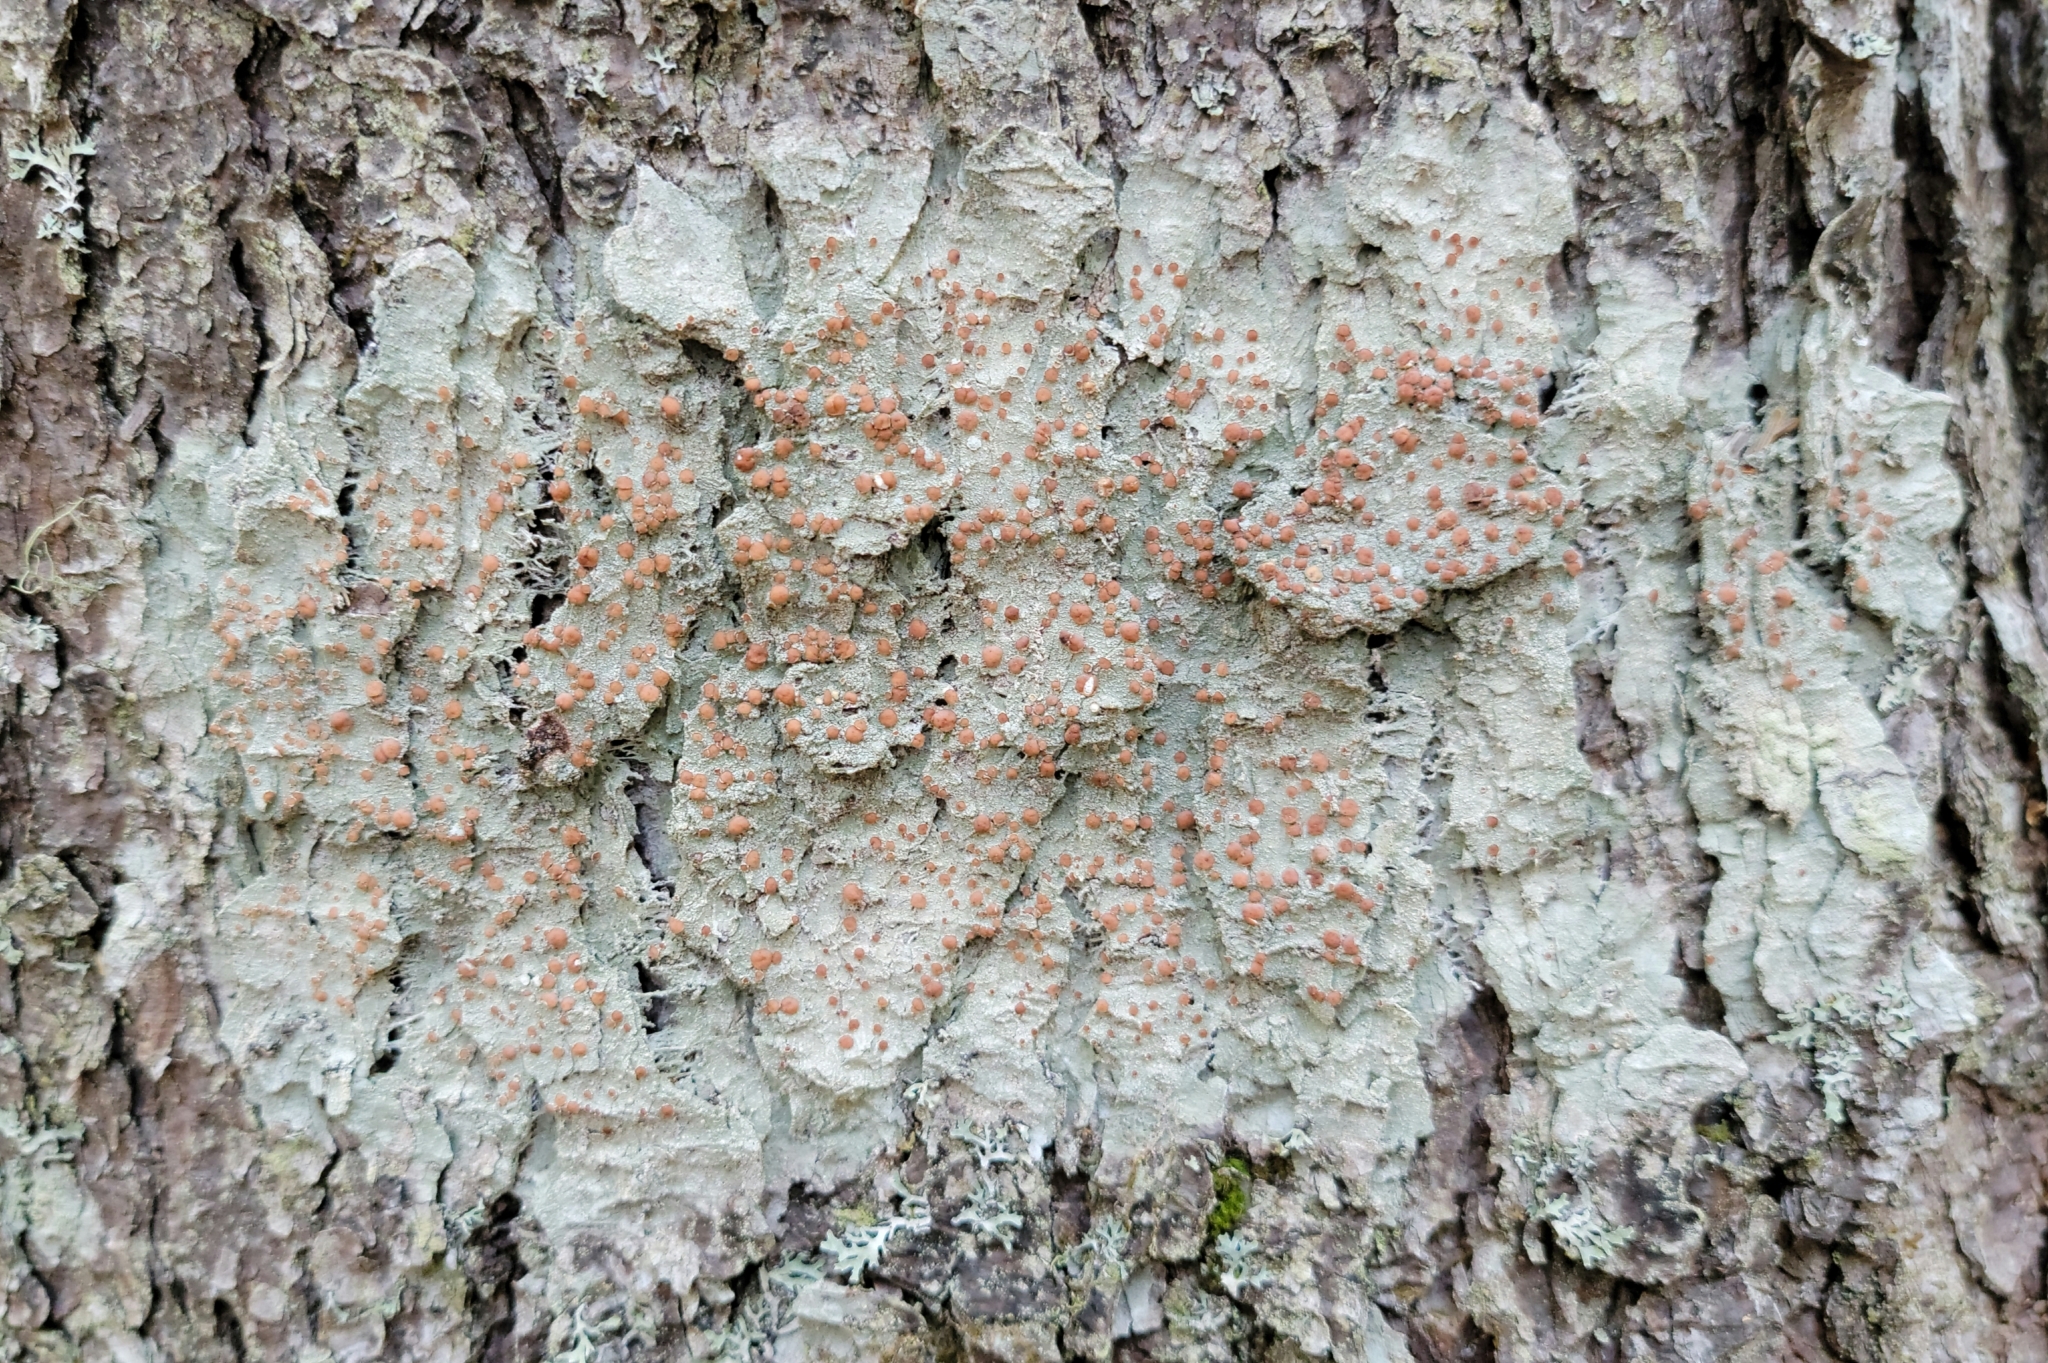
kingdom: Fungi
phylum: Ascomycota
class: Lecanoromycetes
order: Lecanorales
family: Sarrameanaceae
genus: Loxospora
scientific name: Loxospora ochrophaea
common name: Eastern ragged-rim lichen
